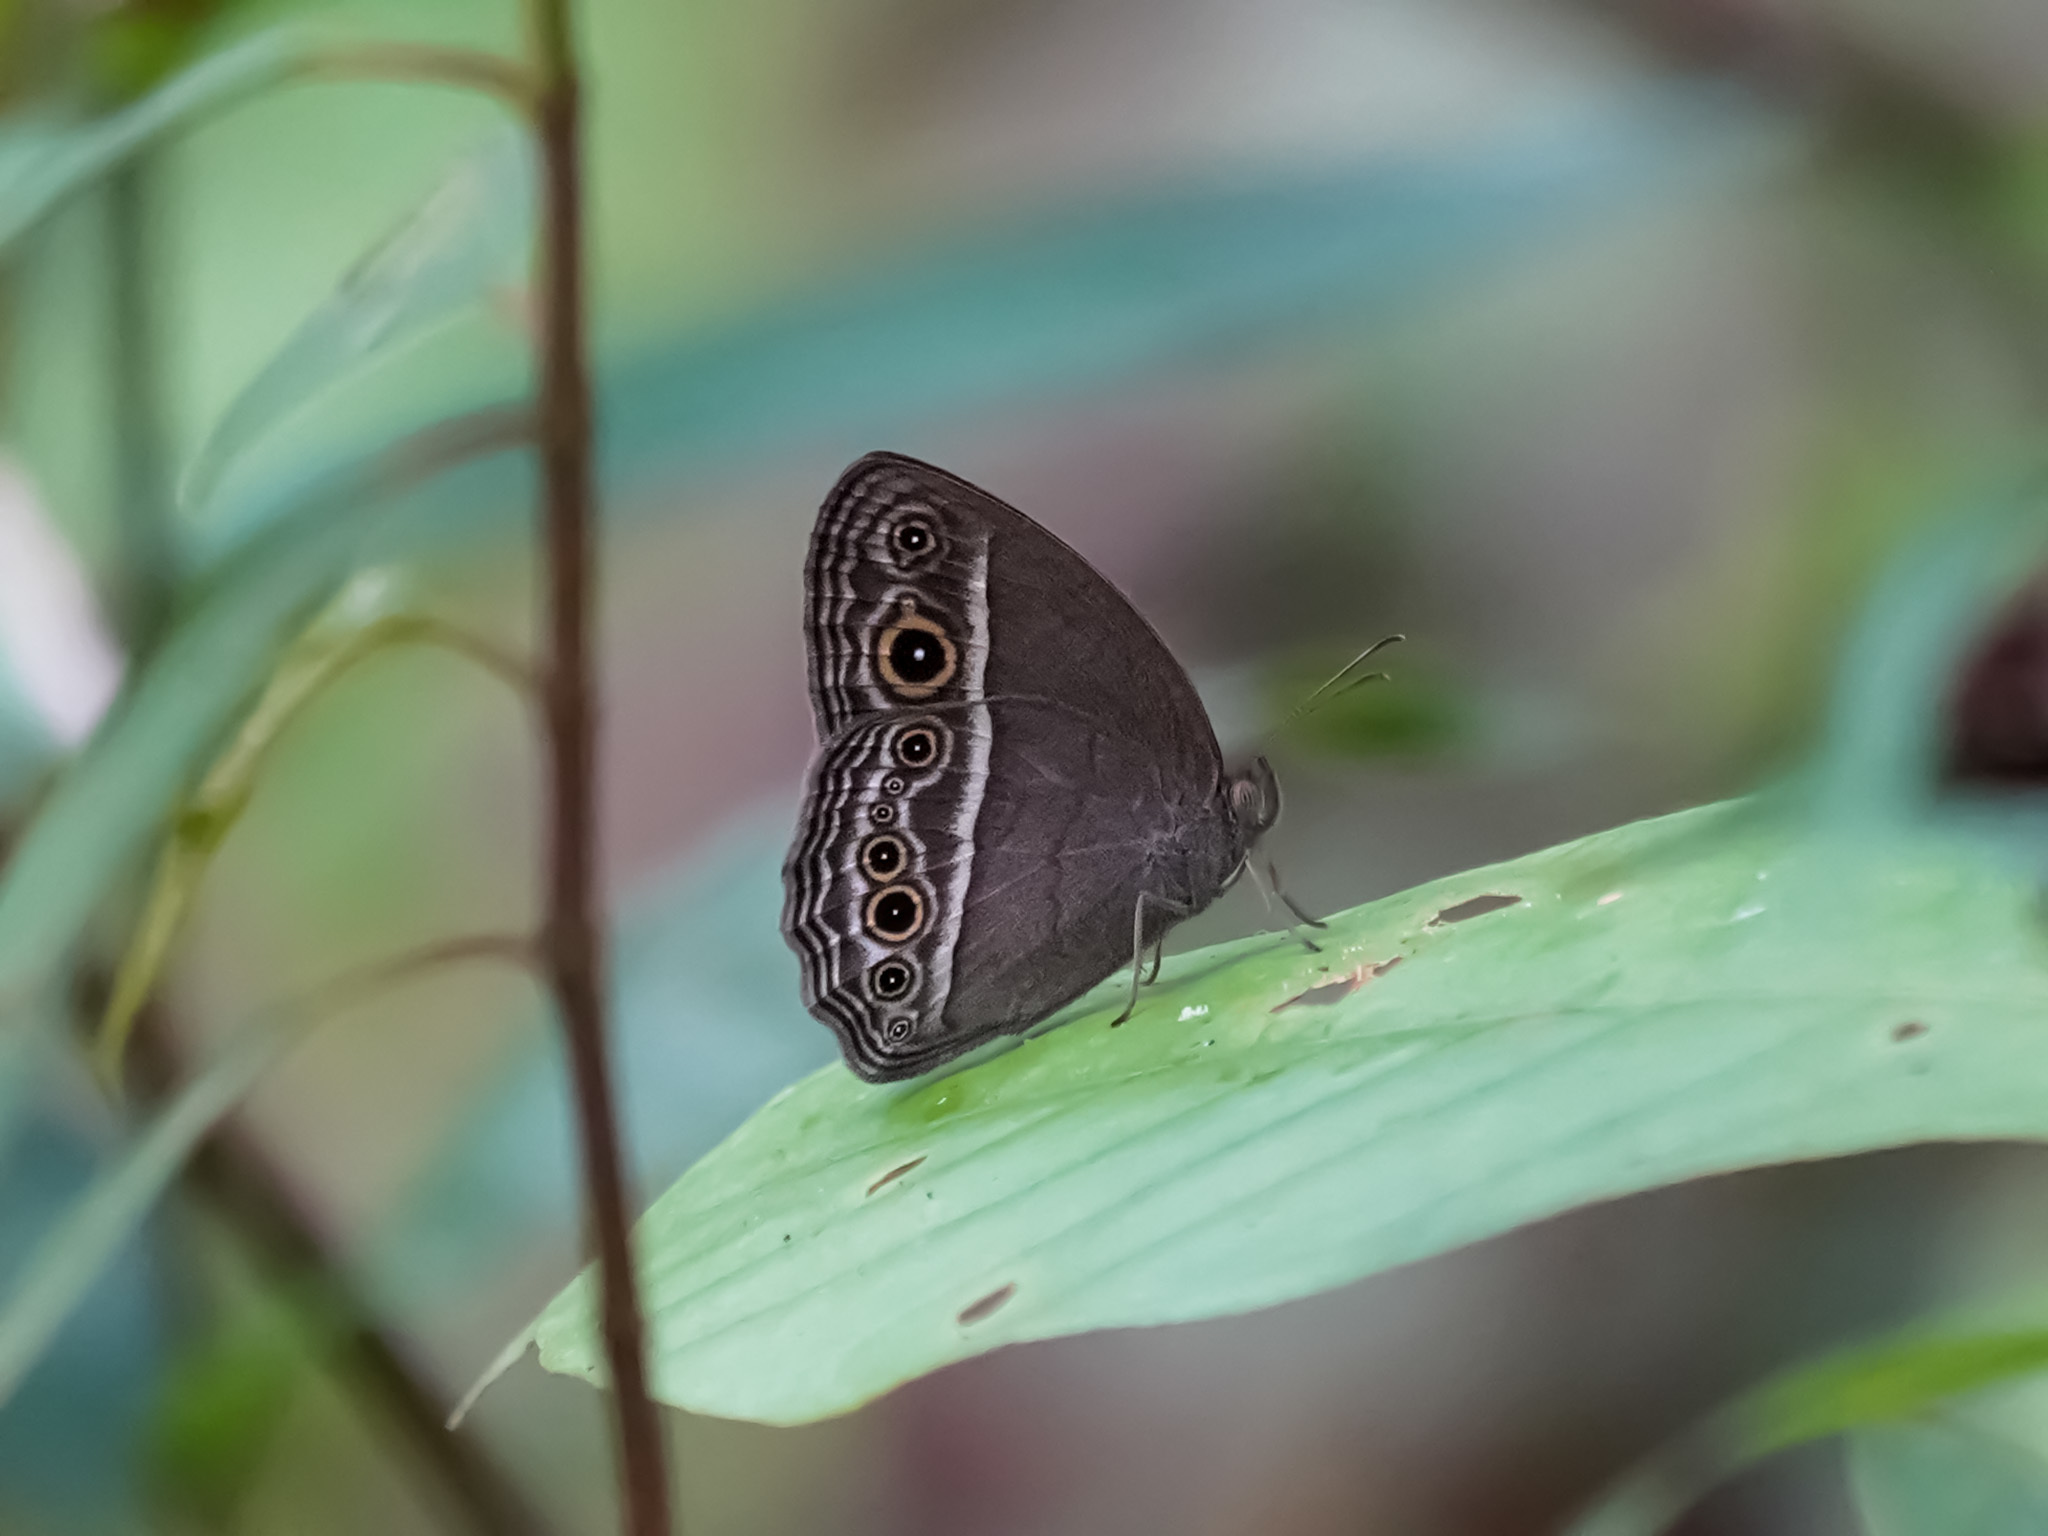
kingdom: Animalia
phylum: Arthropoda
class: Insecta
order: Lepidoptera
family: Nymphalidae
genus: Mycalesis
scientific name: Mycalesis perseoides
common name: Burmese bushbrown
